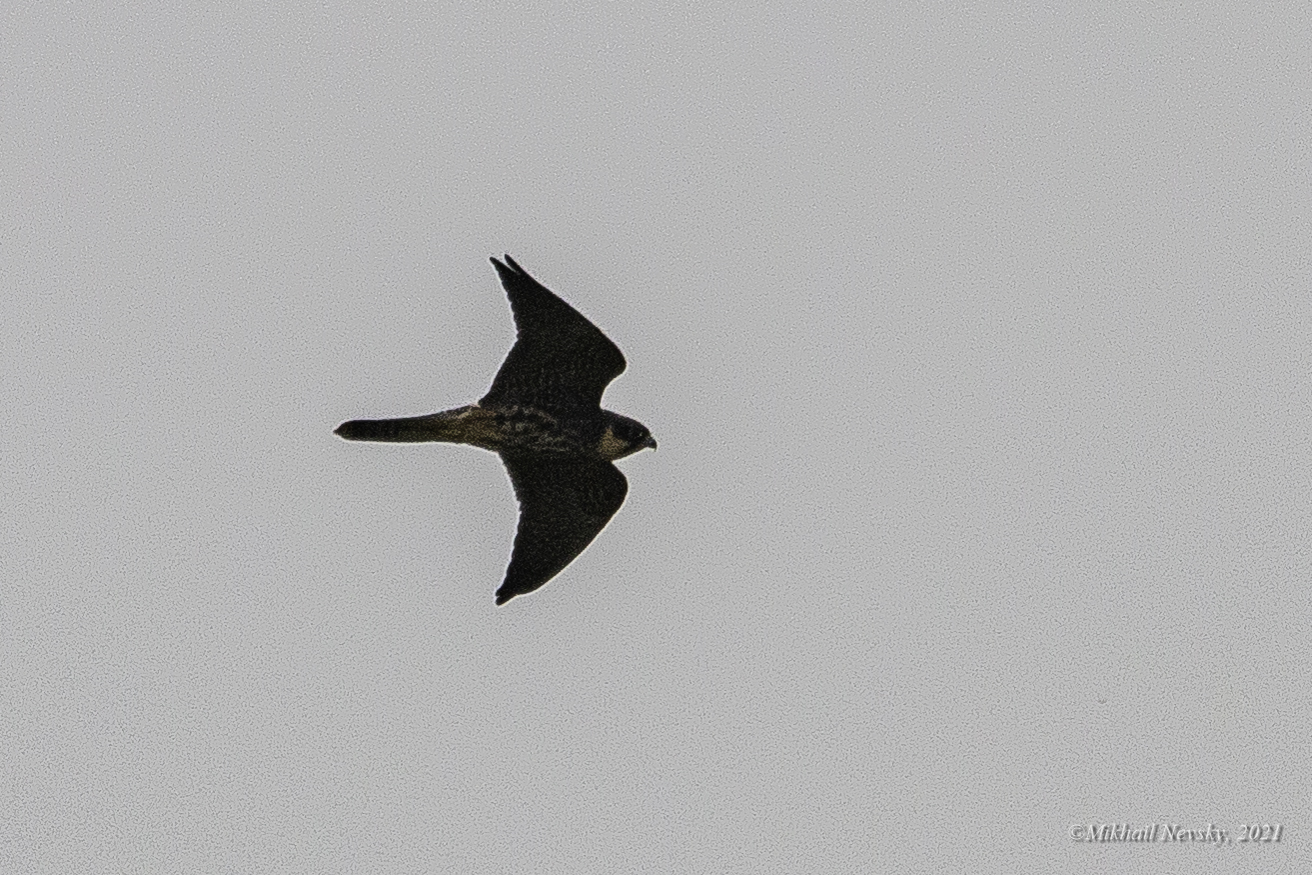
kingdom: Animalia
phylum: Chordata
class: Aves
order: Falconiformes
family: Falconidae
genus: Falco
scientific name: Falco subbuteo
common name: Eurasian hobby
